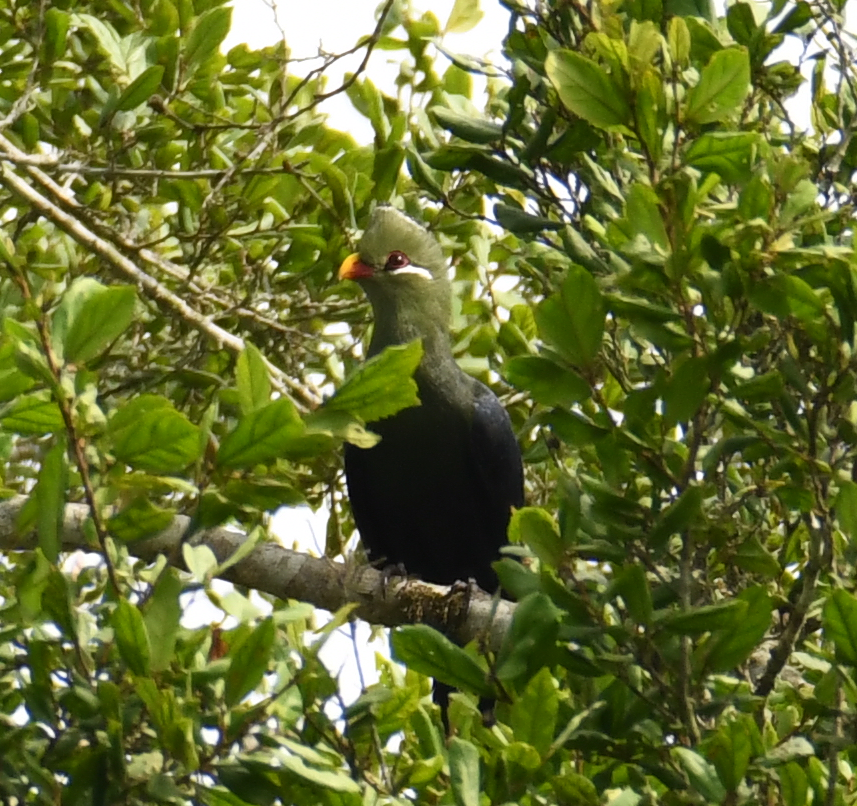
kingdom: Animalia
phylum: Chordata
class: Aves
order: Musophagiformes
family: Musophagidae
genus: Tauraco
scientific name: Tauraco macrorhynchus
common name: Yellow-billed turaco
